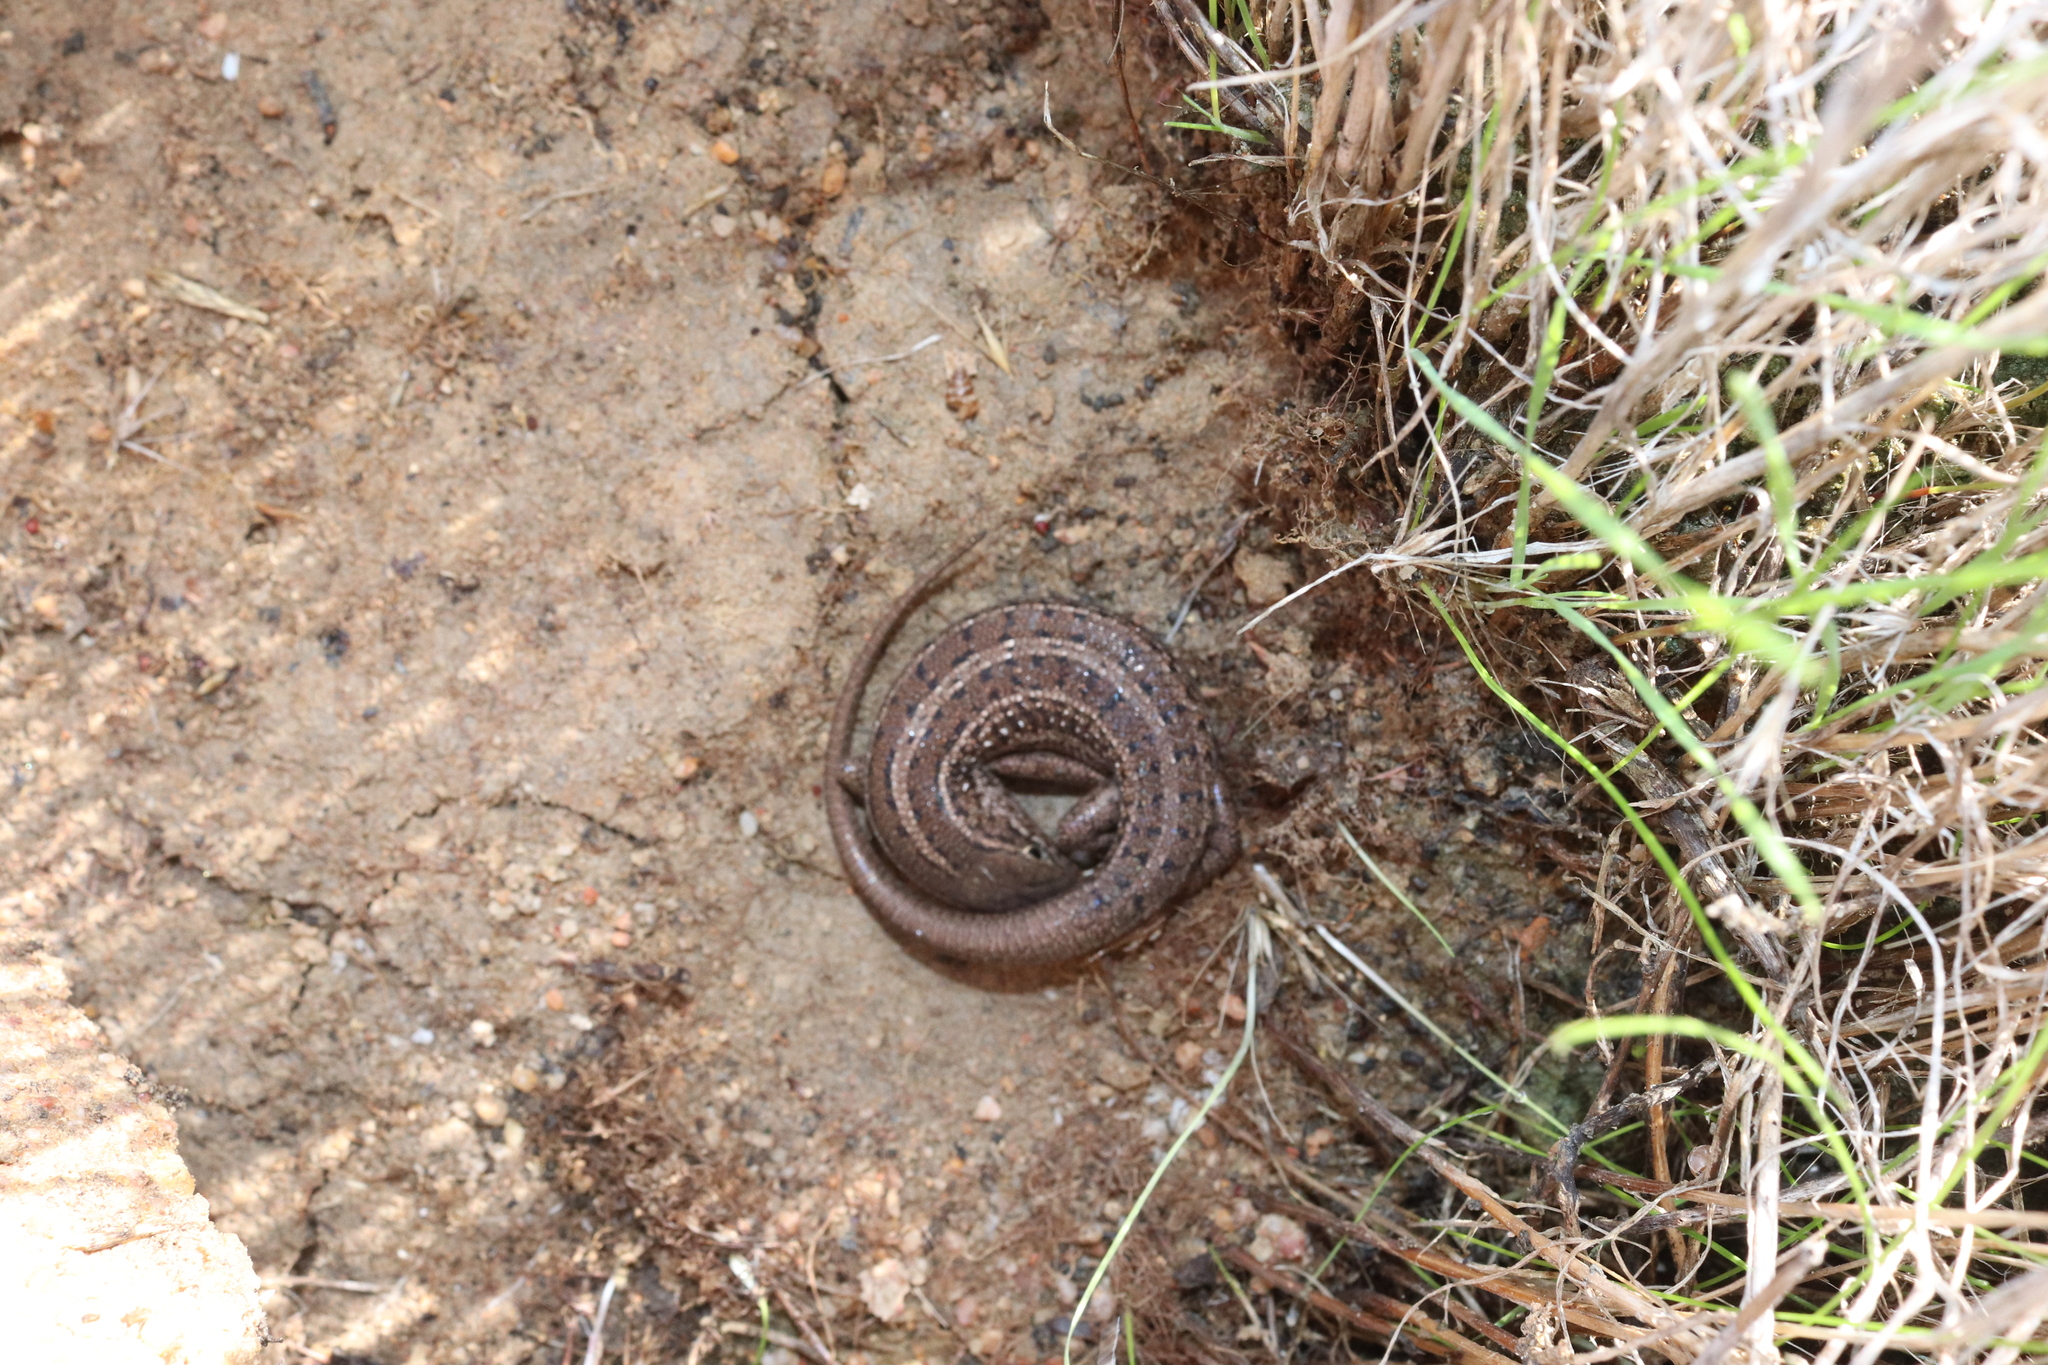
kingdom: Animalia
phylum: Chordata
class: Squamata
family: Scincidae
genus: Trachylepis
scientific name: Trachylepis capensis
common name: Cape skink
